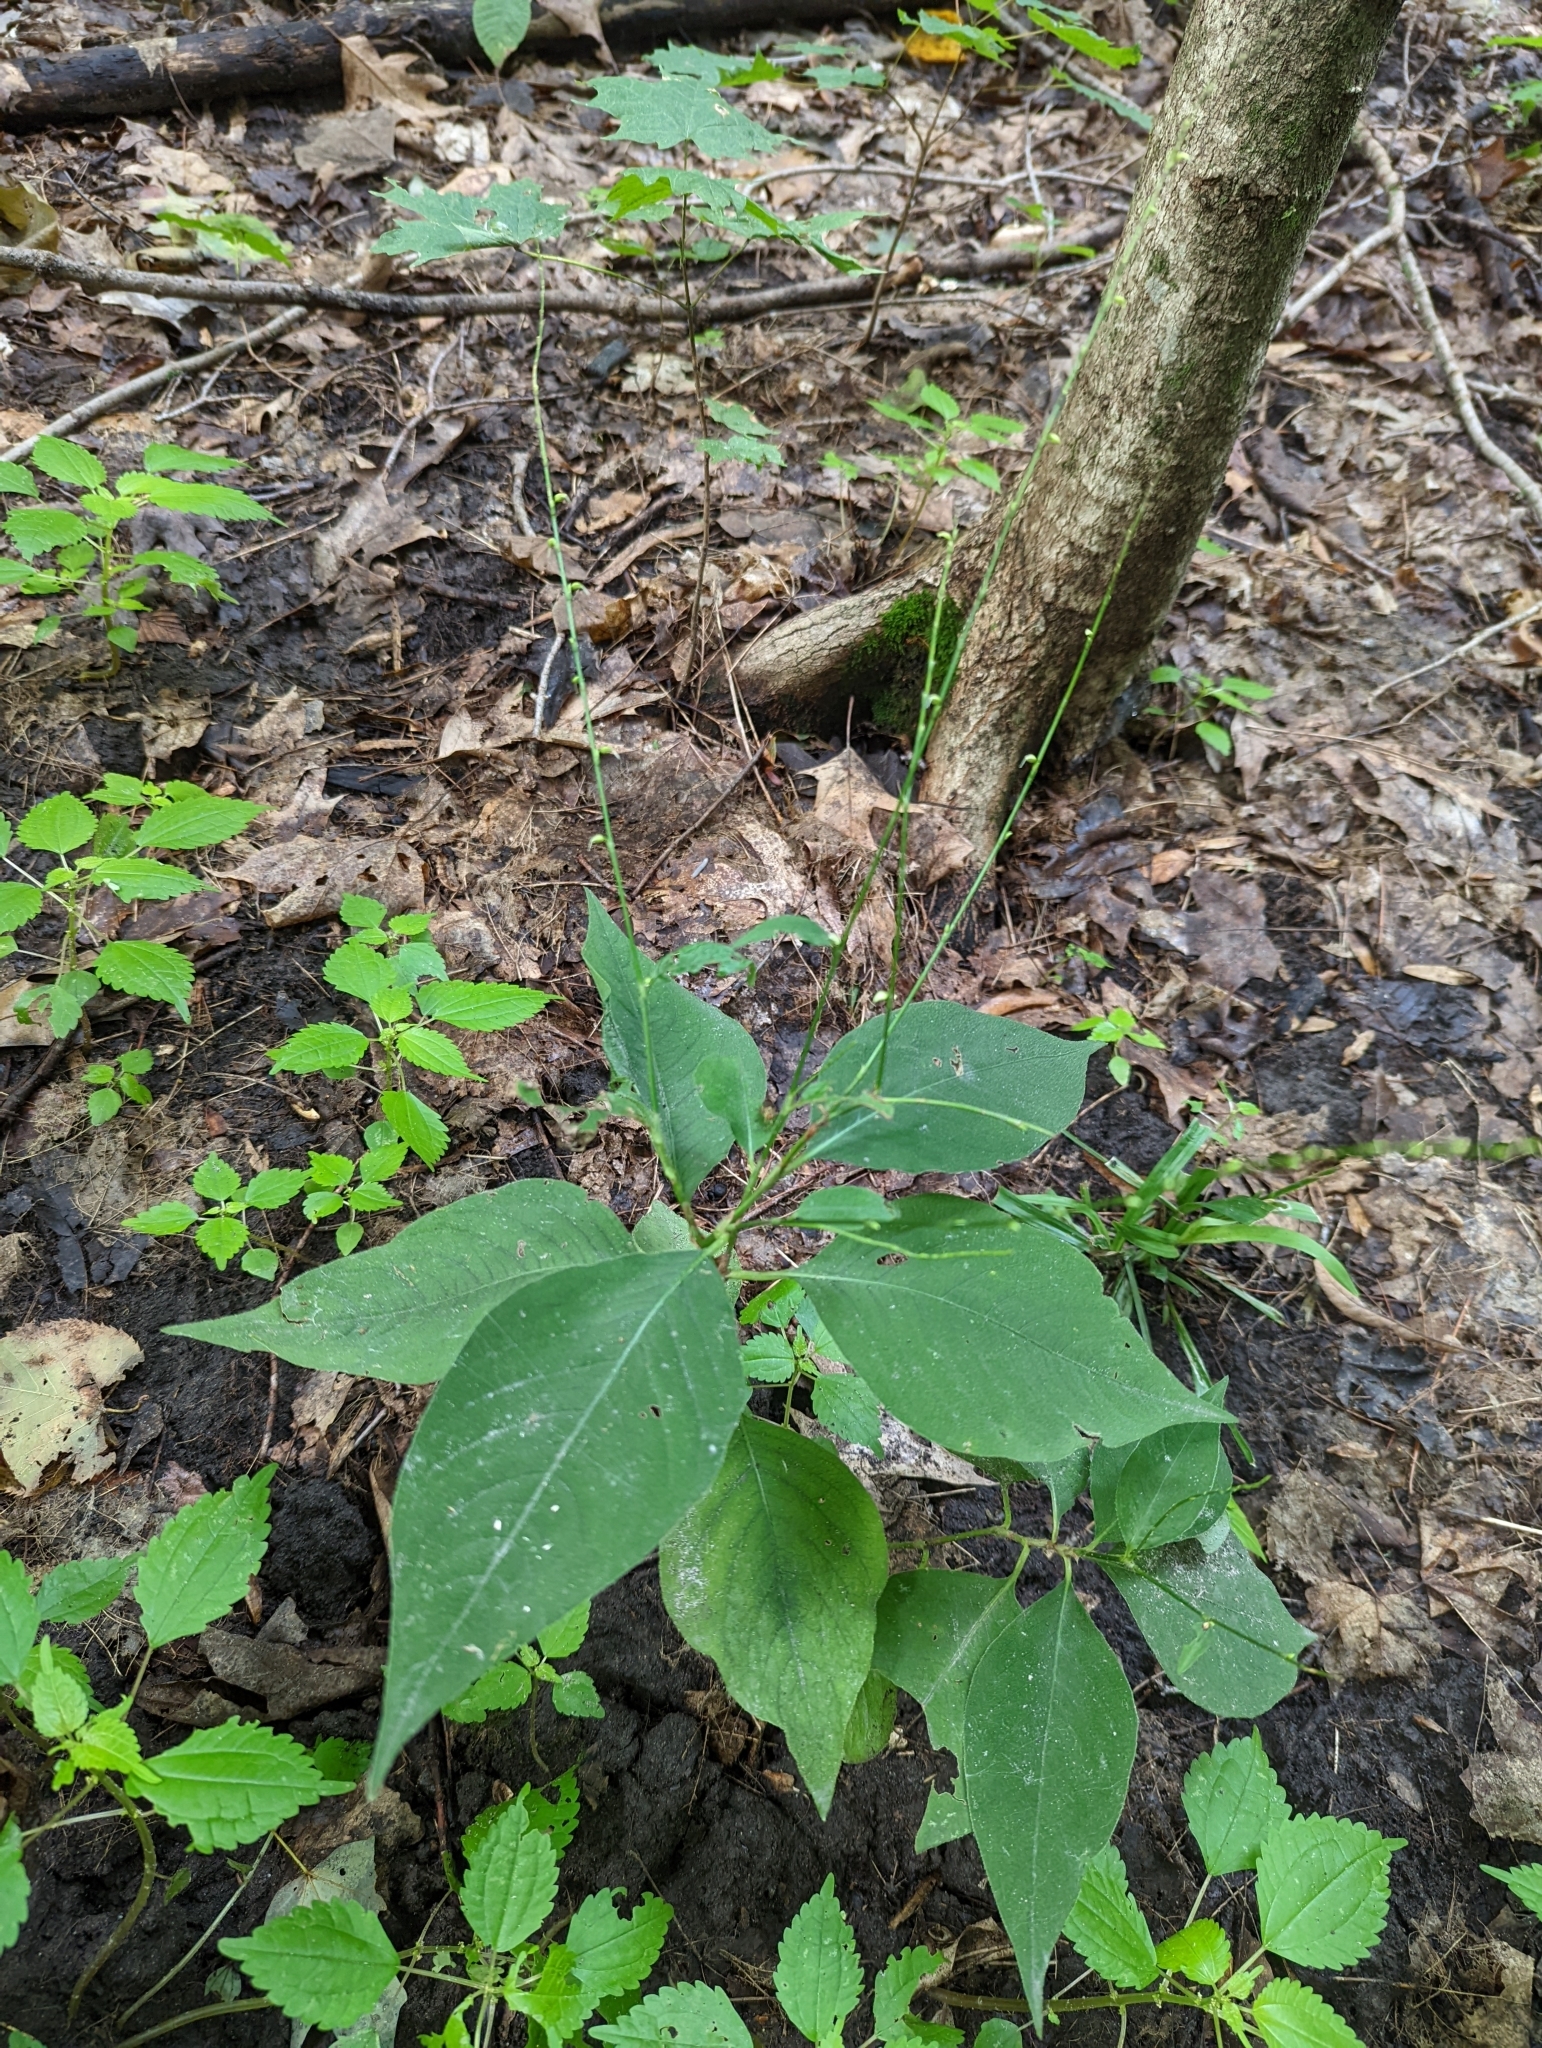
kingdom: Plantae
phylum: Tracheophyta
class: Magnoliopsida
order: Caryophyllales
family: Polygonaceae
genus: Persicaria
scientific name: Persicaria virginiana
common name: Jumpseed
